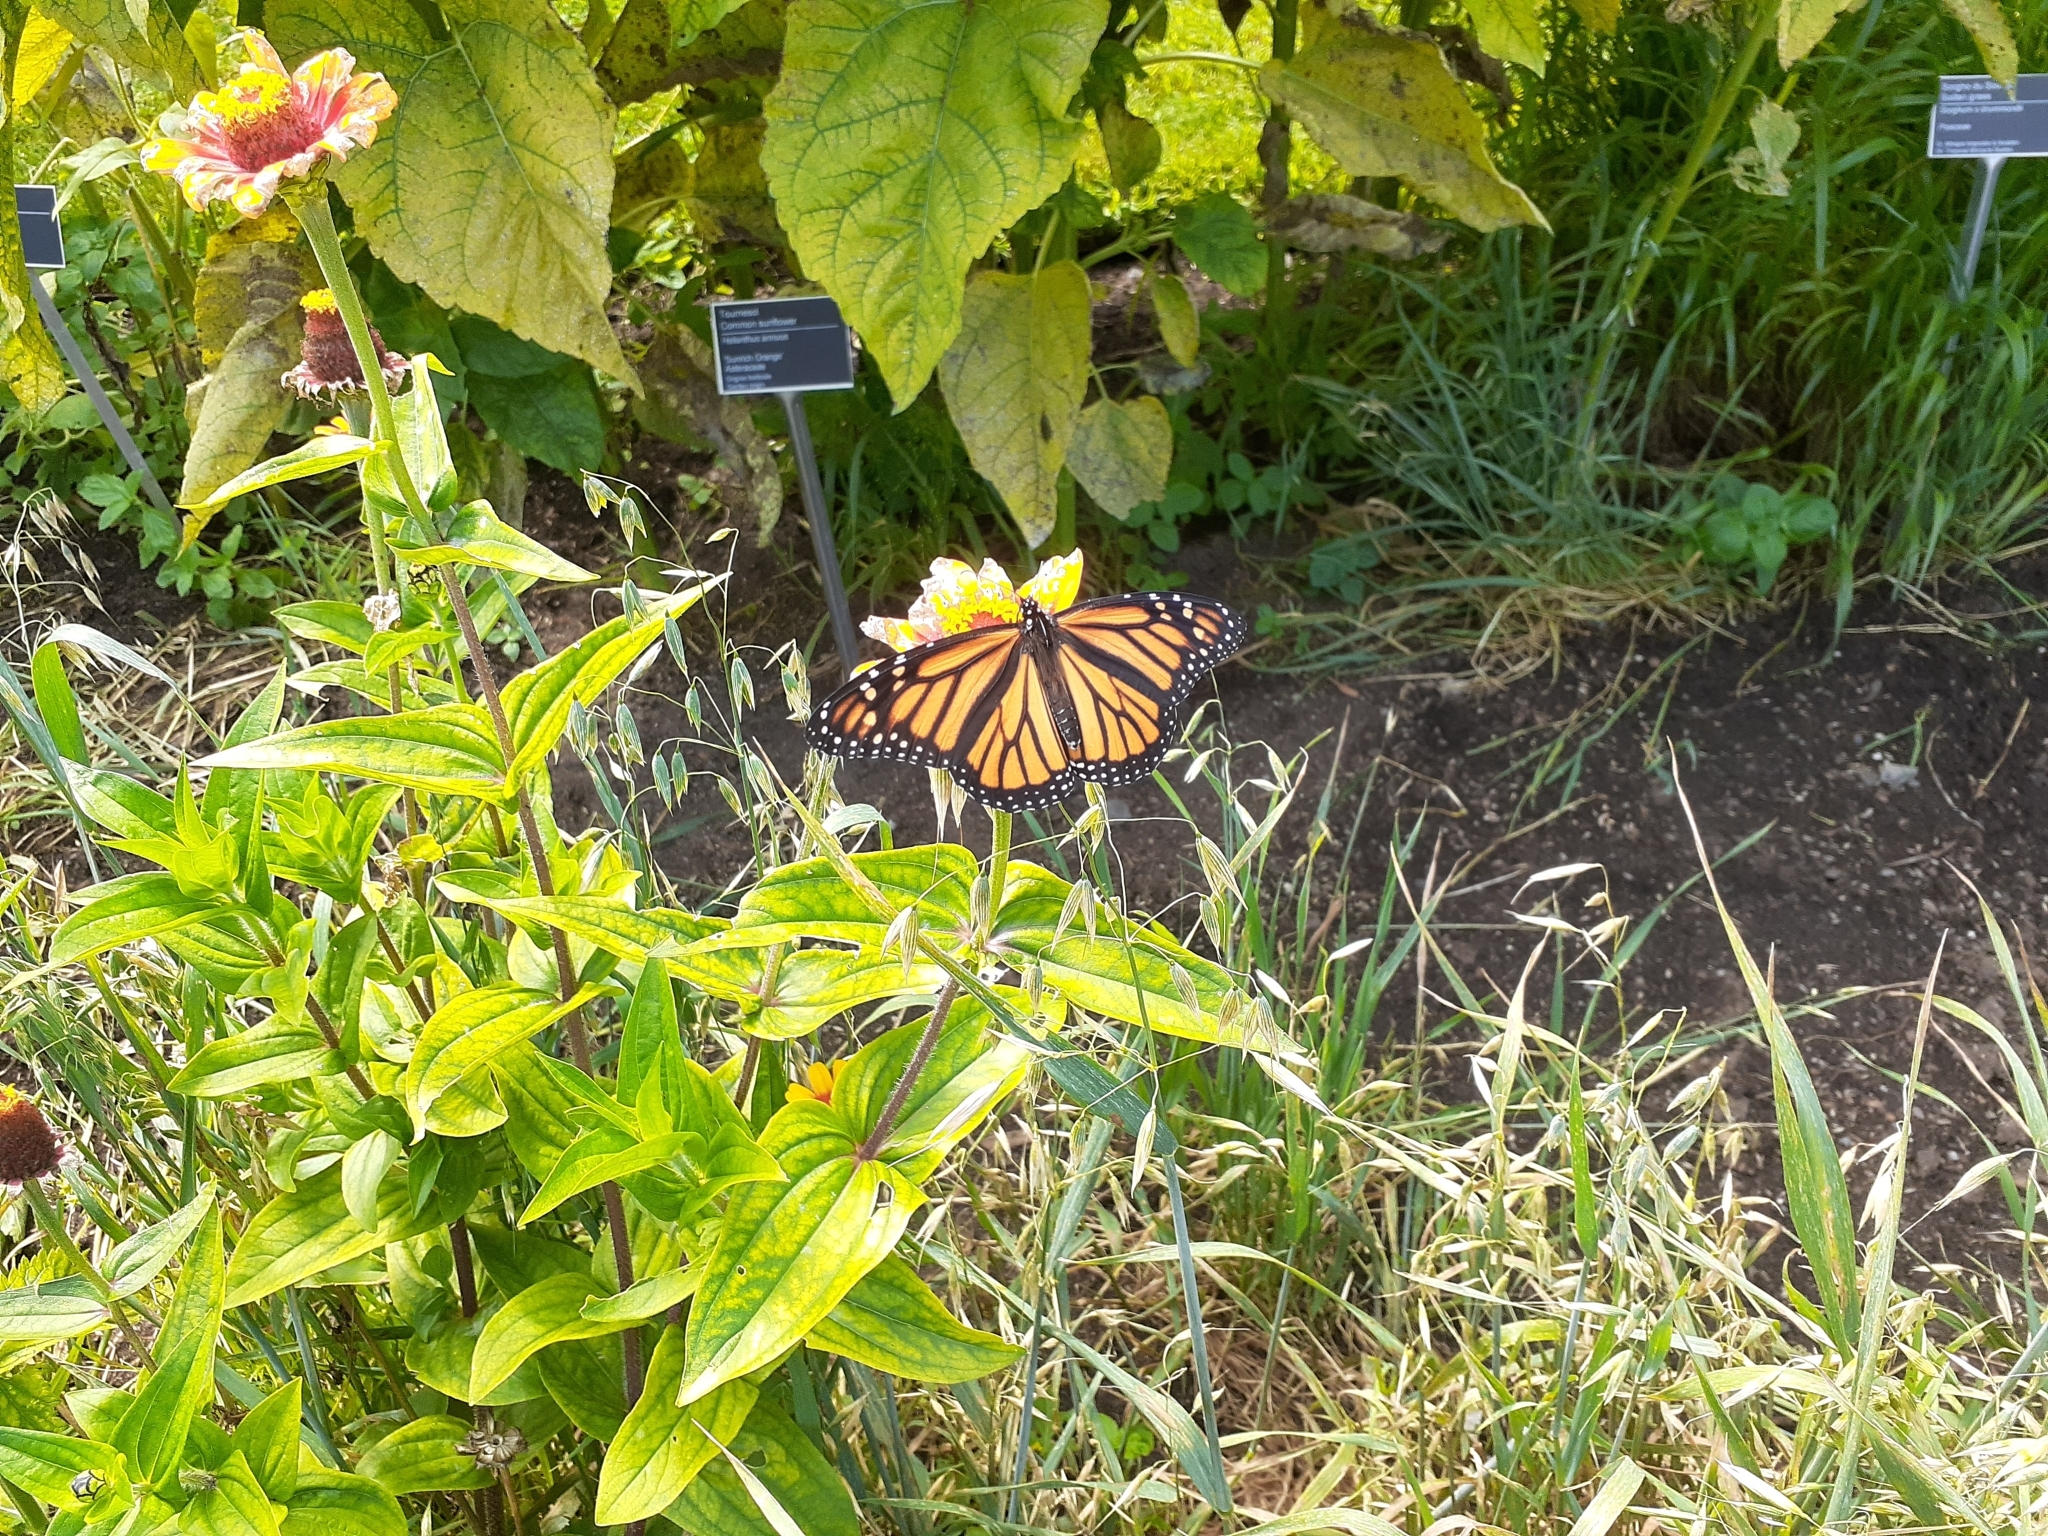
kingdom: Animalia
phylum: Arthropoda
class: Insecta
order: Lepidoptera
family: Nymphalidae
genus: Danaus
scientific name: Danaus plexippus
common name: Monarch
